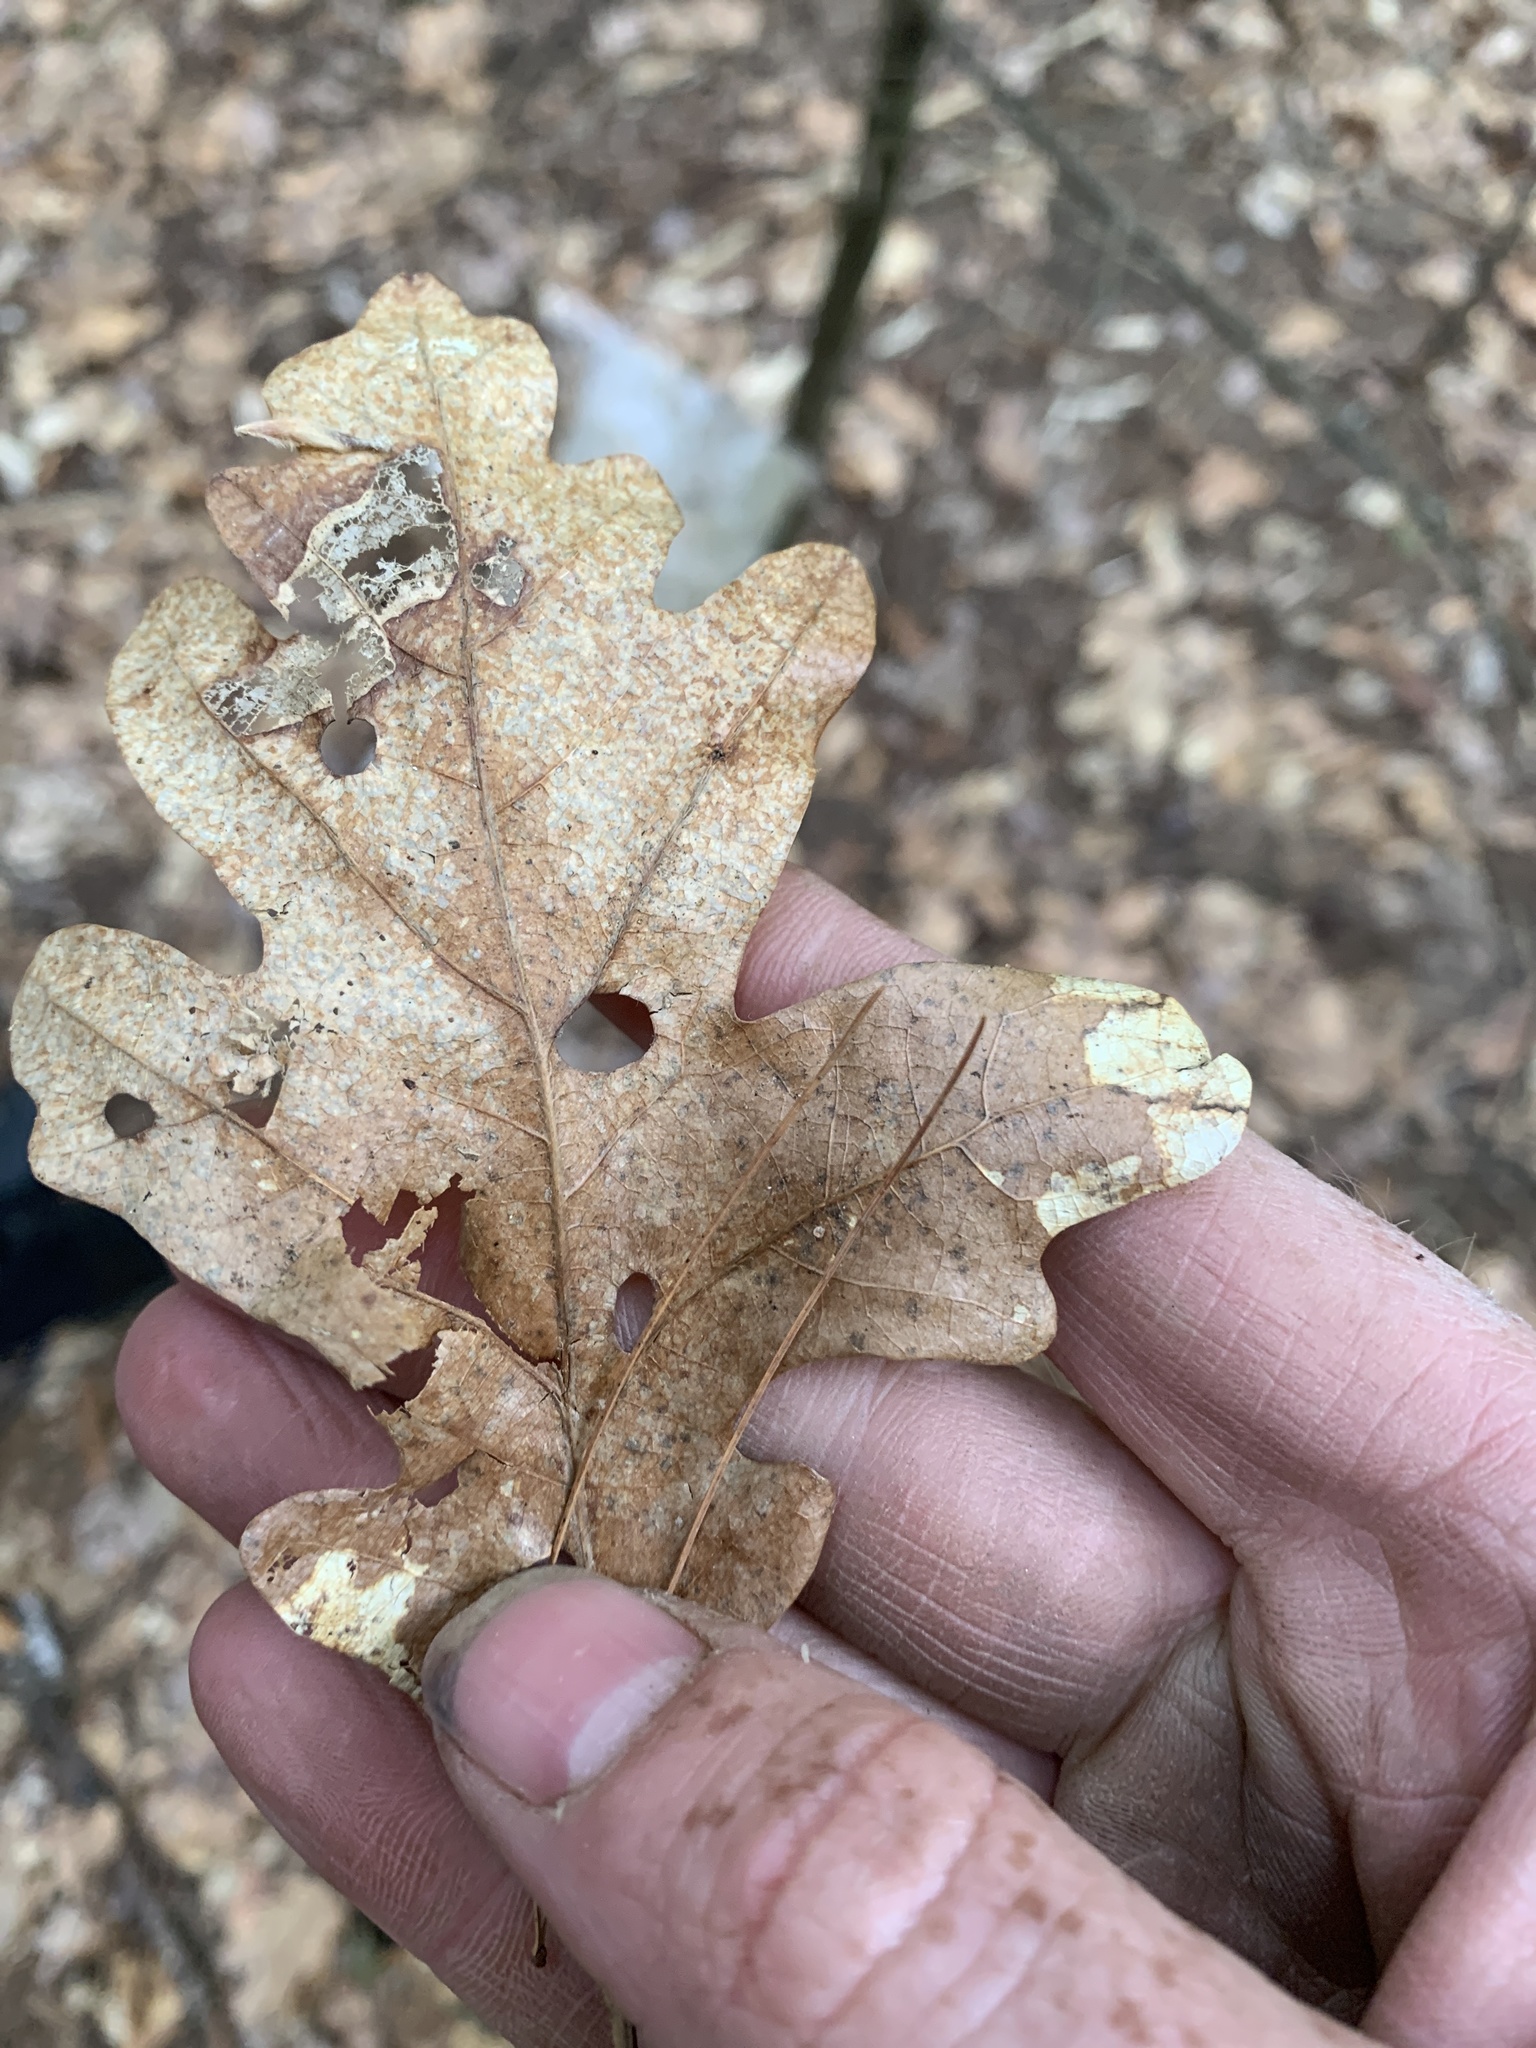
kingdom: Plantae
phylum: Tracheophyta
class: Magnoliopsida
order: Fagales
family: Fagaceae
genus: Quercus
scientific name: Quercus alba
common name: White oak
